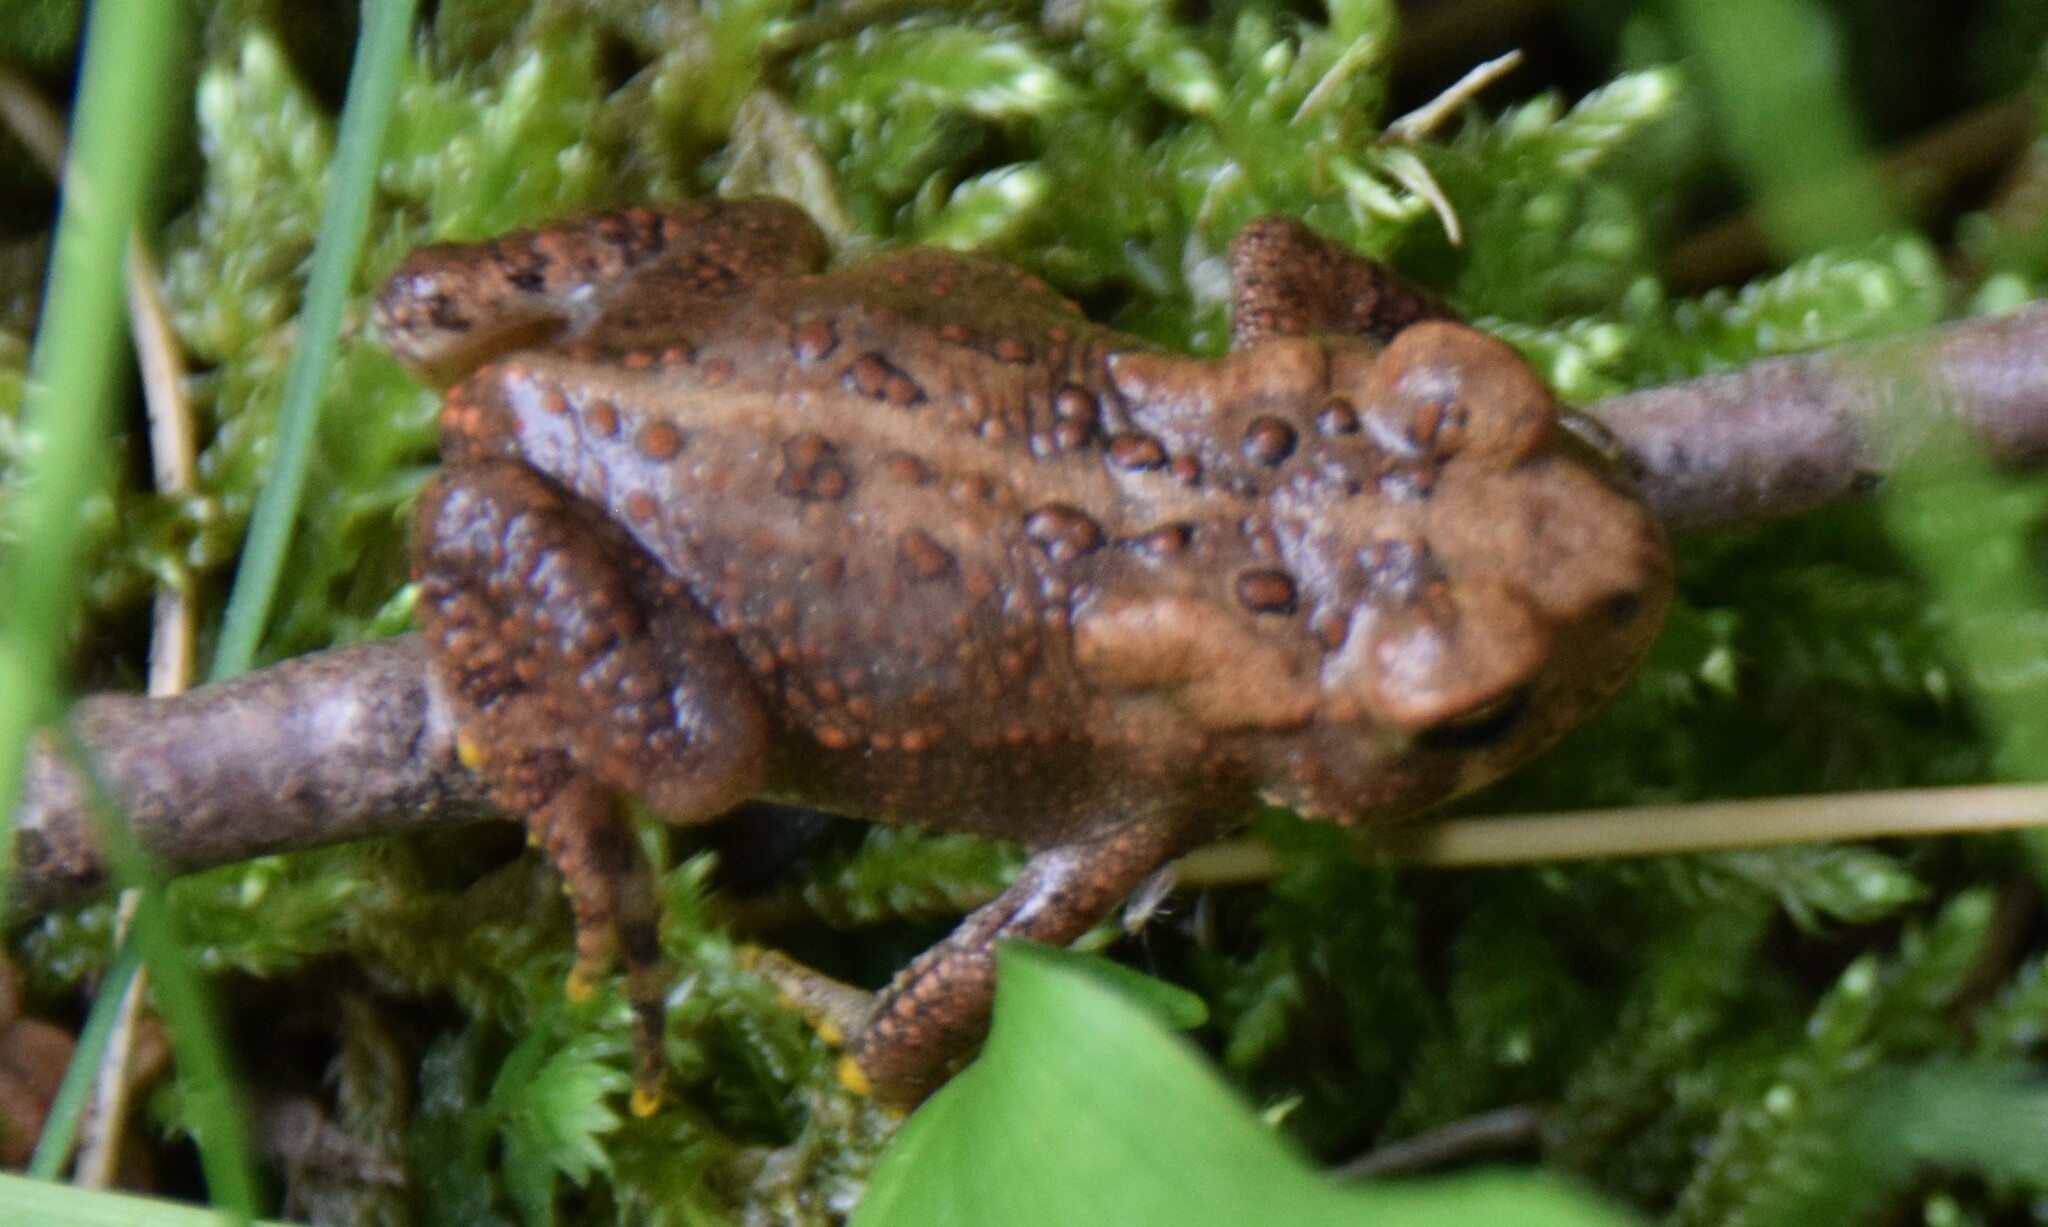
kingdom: Animalia
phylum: Chordata
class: Amphibia
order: Anura
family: Bufonidae
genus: Anaxyrus
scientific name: Anaxyrus americanus
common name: American toad
